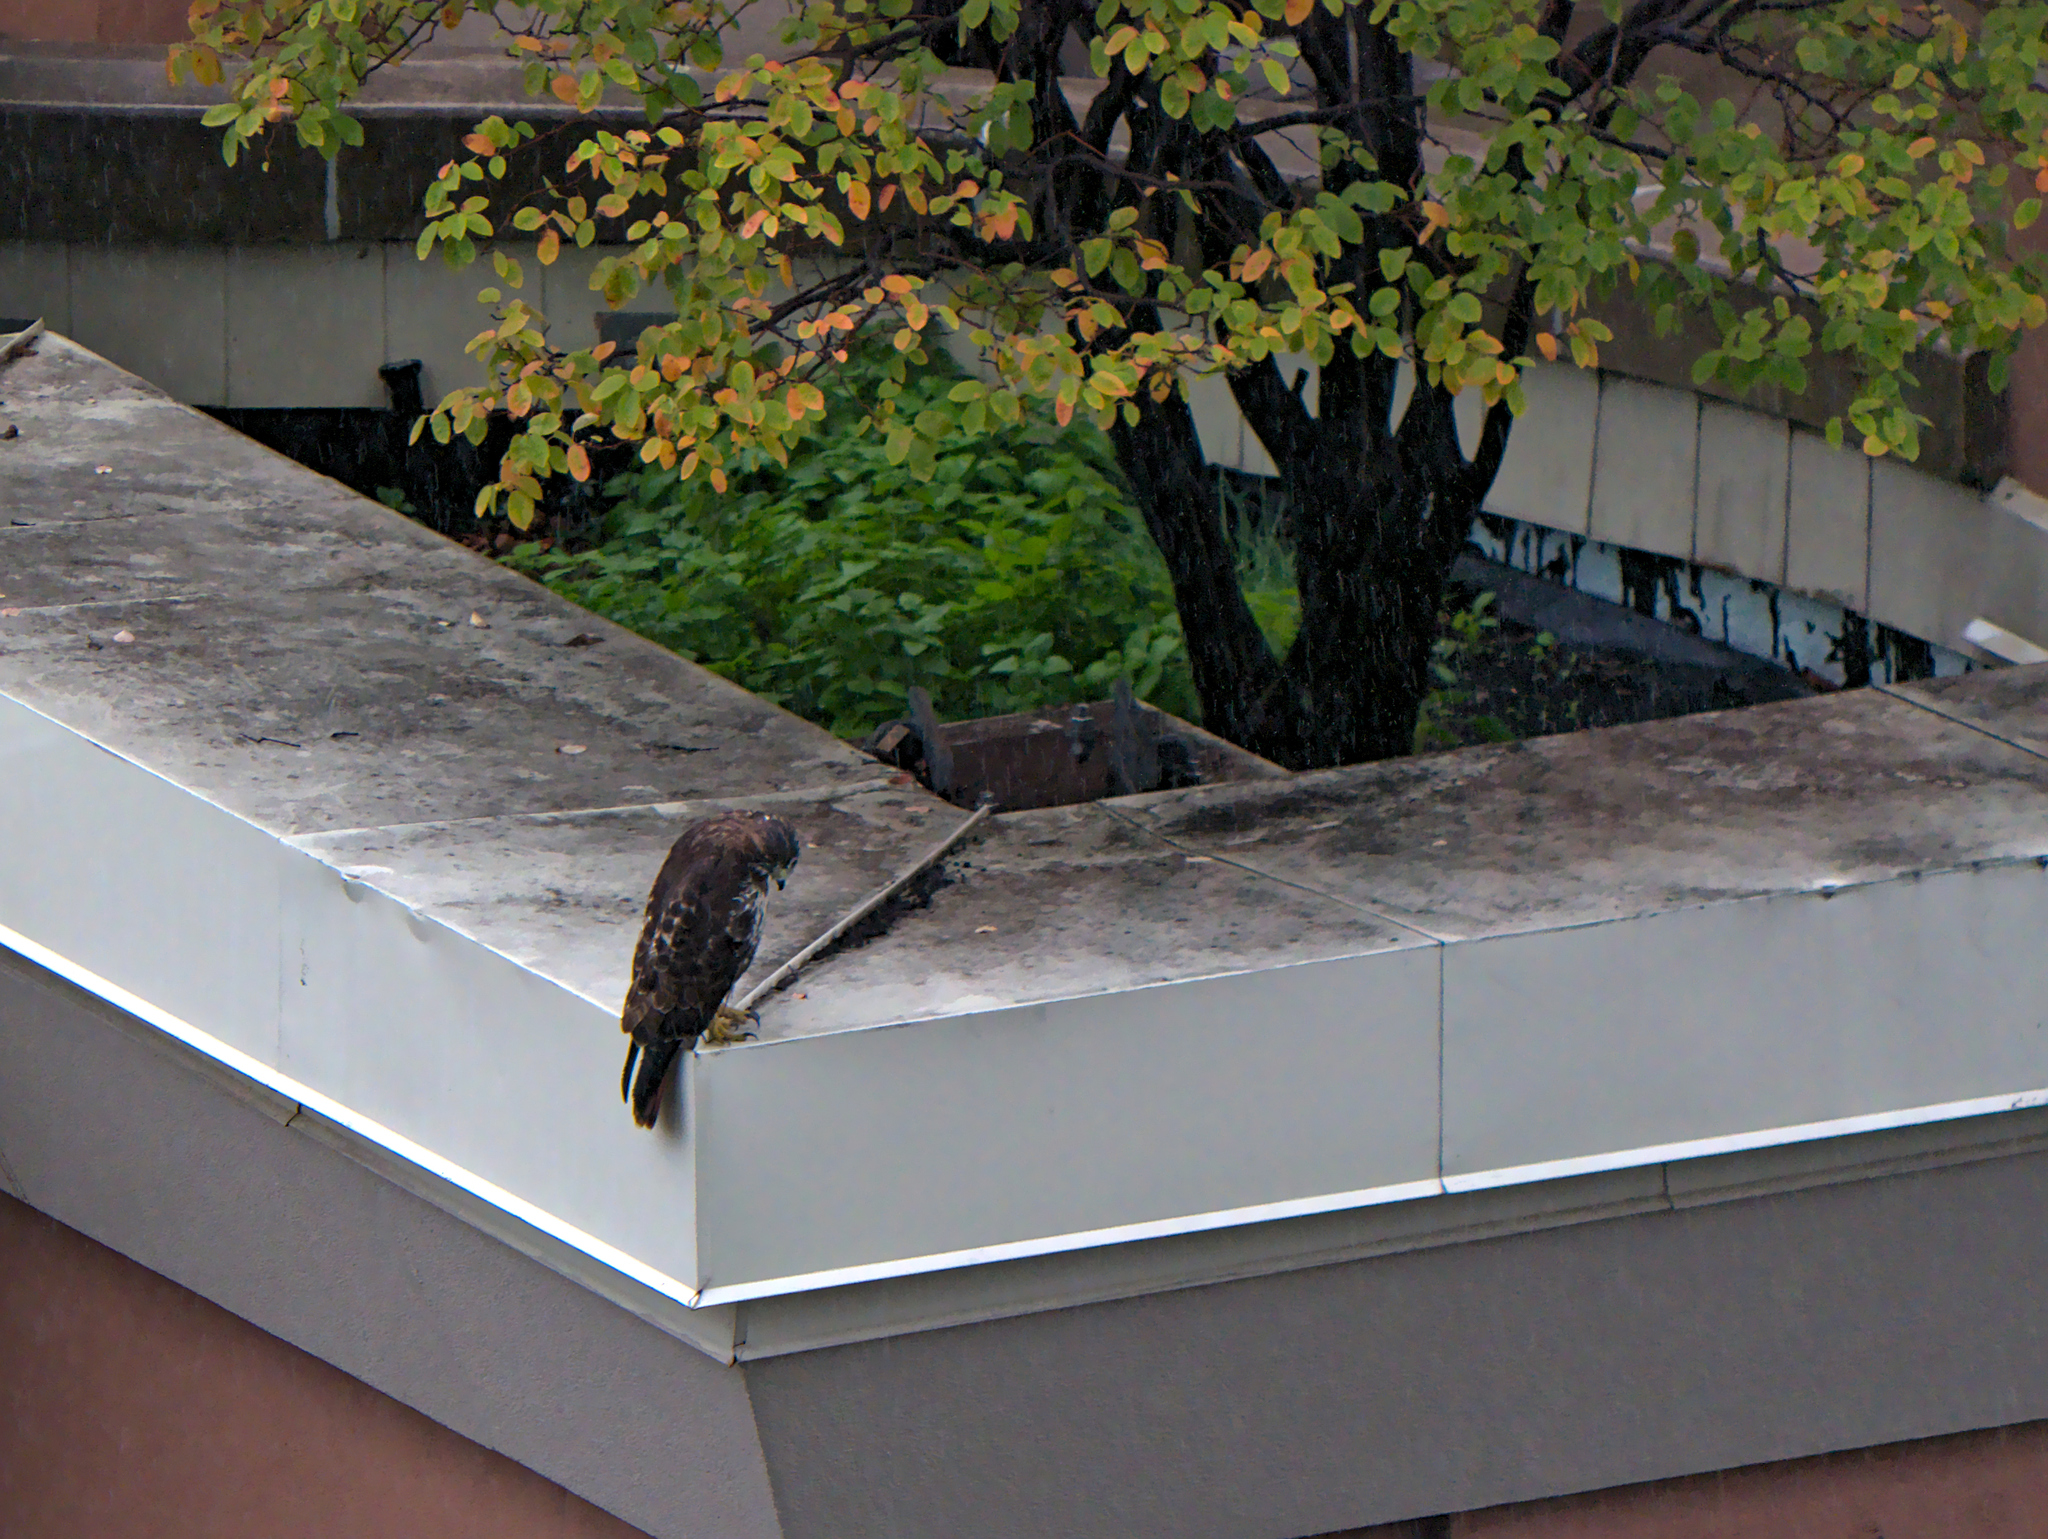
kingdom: Animalia
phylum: Chordata
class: Aves
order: Accipitriformes
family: Accipitridae
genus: Buteo
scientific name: Buteo jamaicensis
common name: Red-tailed hawk
